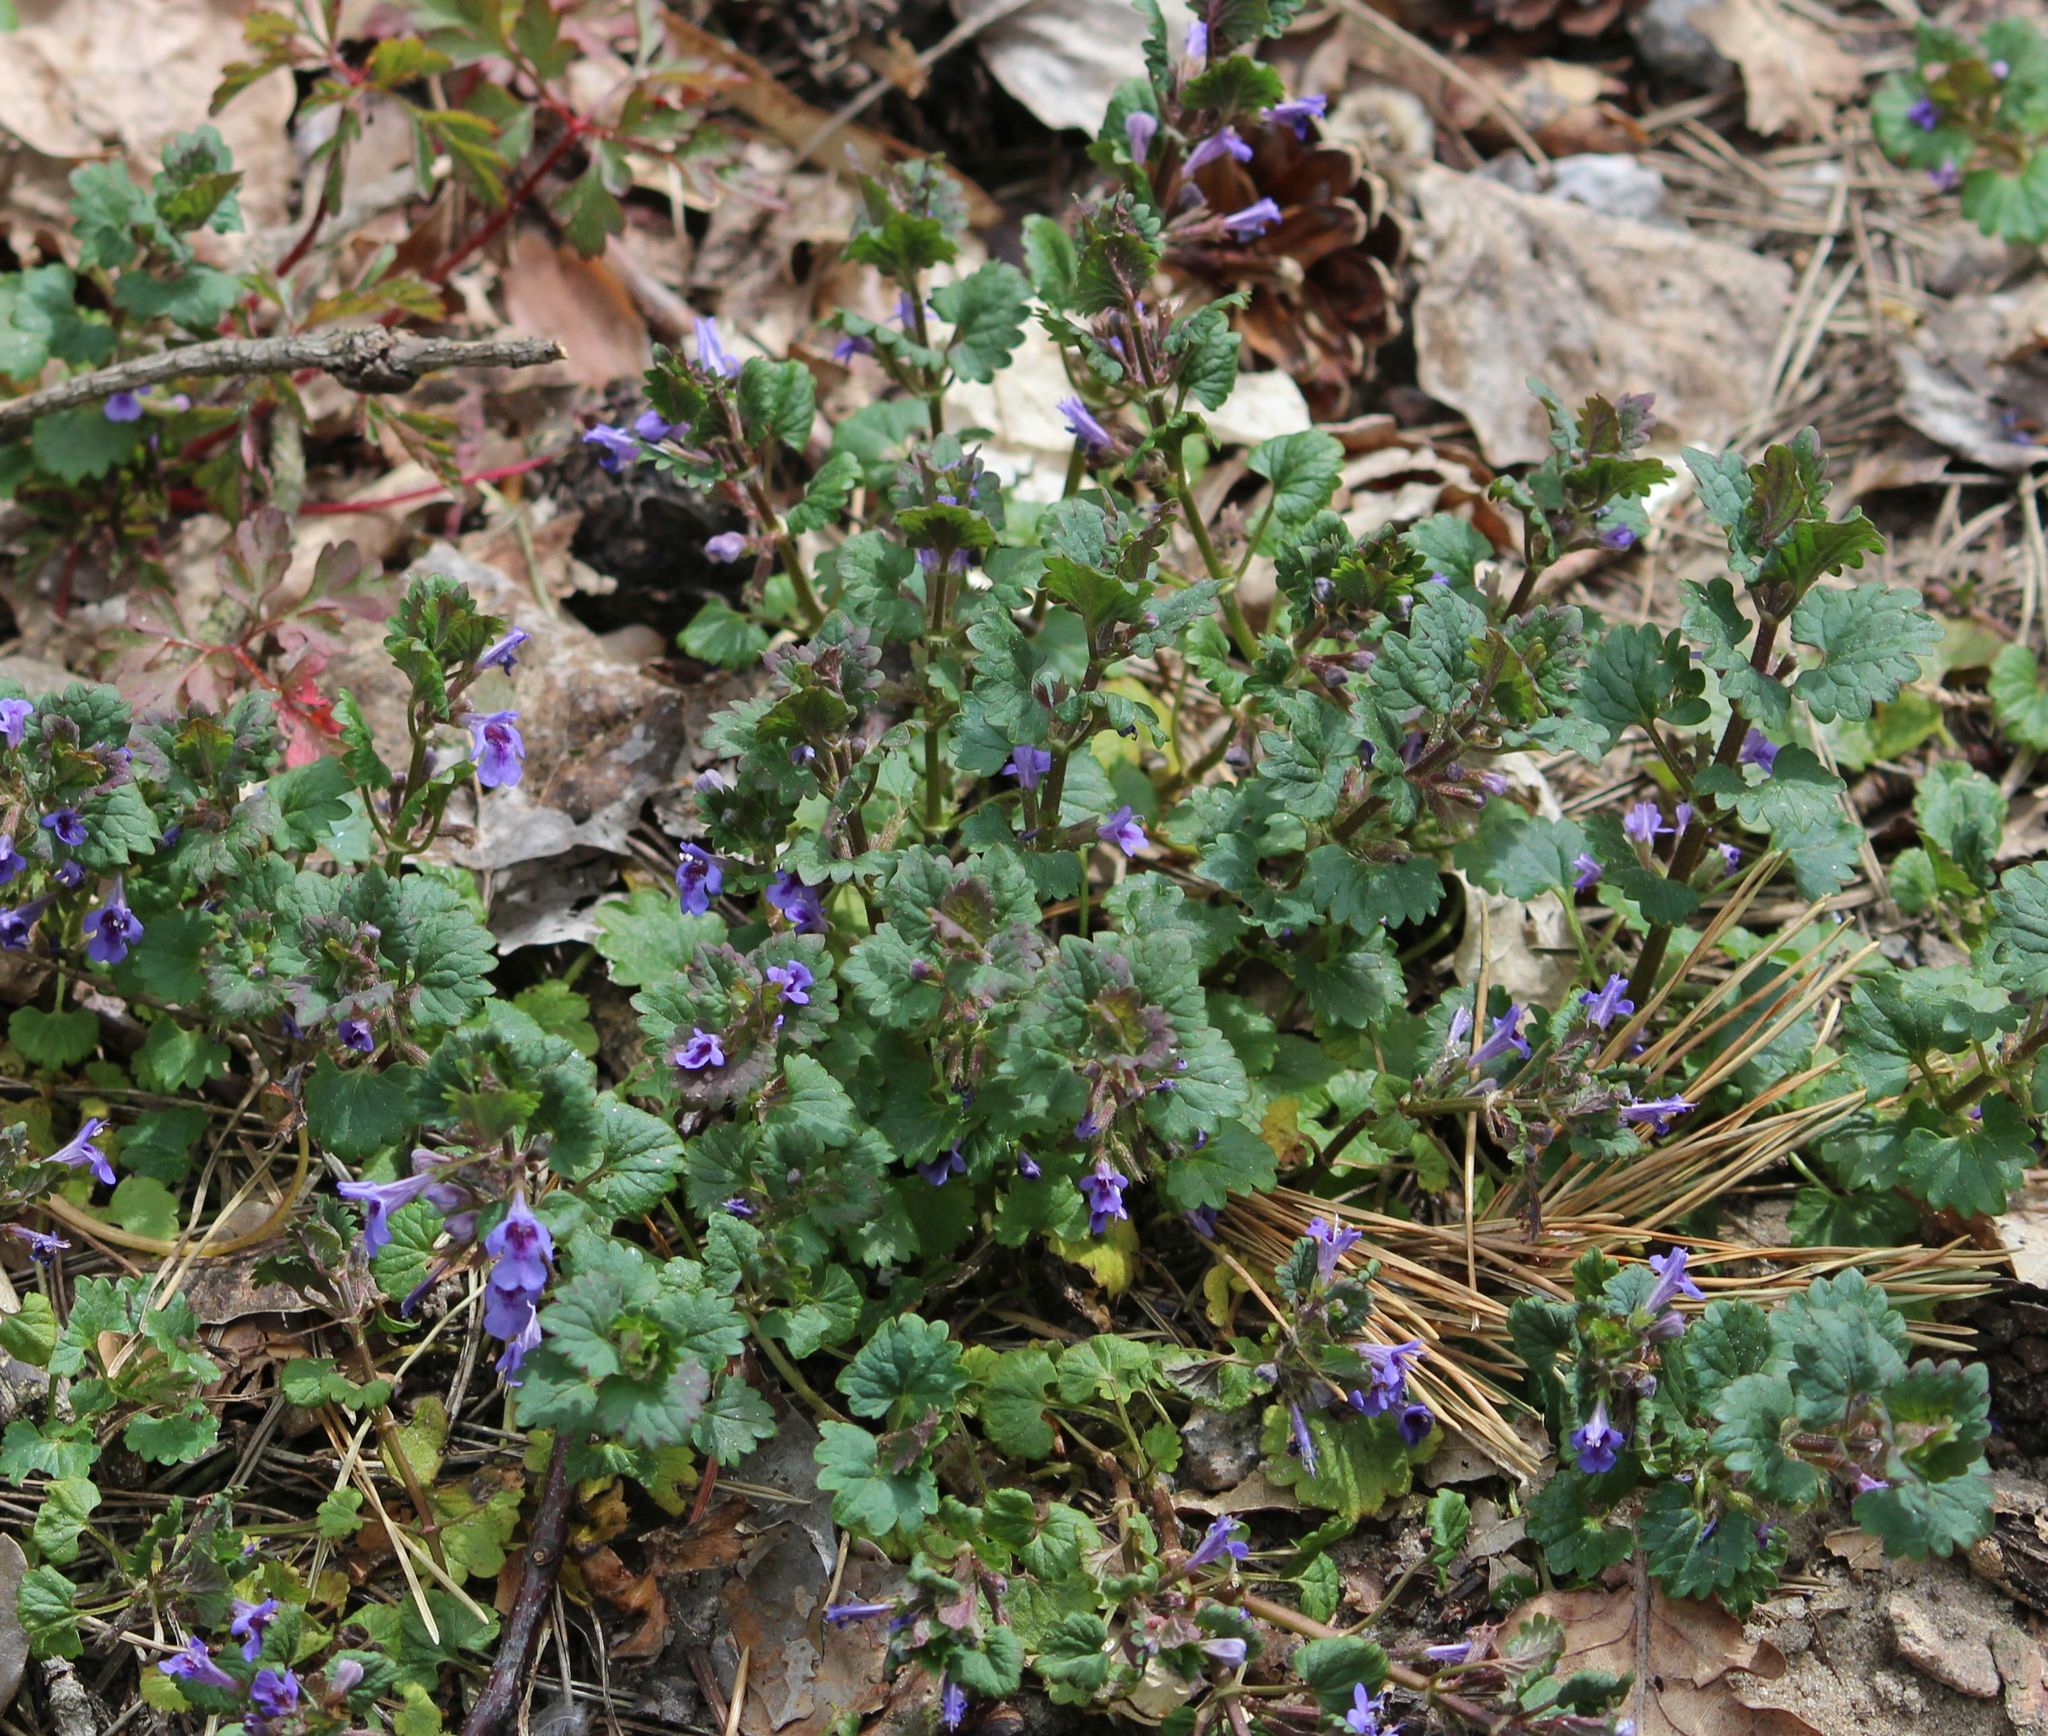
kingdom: Plantae
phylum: Tracheophyta
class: Magnoliopsida
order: Lamiales
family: Lamiaceae
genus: Glechoma
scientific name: Glechoma hederacea
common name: Ground ivy
